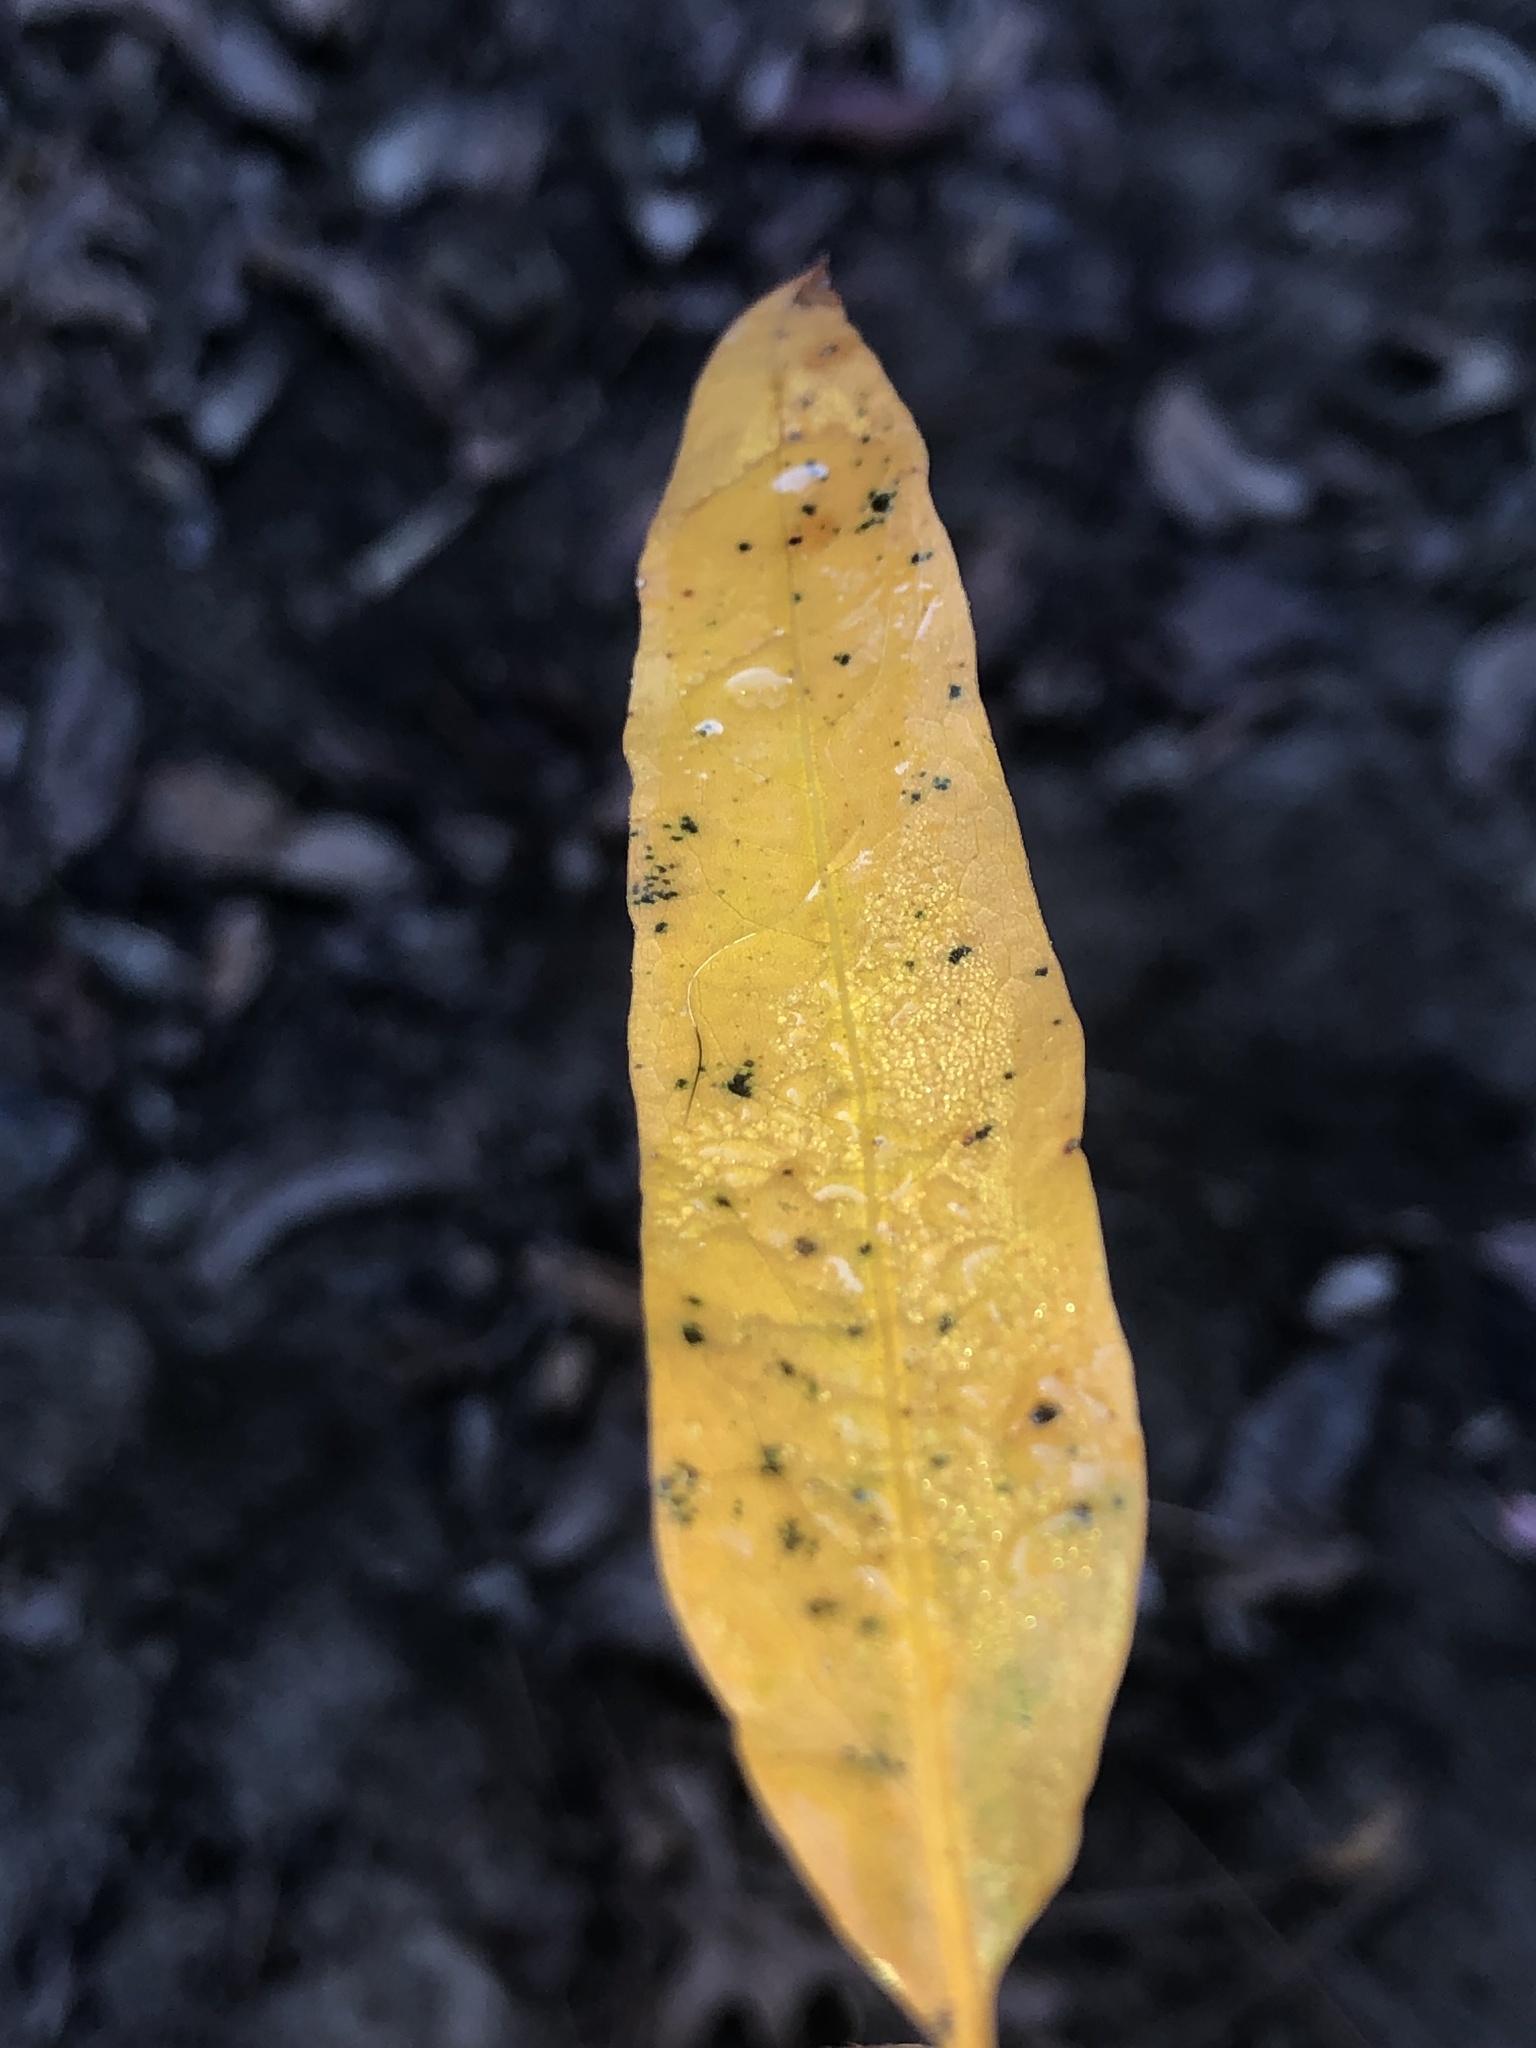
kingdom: Plantae
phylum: Tracheophyta
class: Magnoliopsida
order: Fagales
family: Fagaceae
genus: Quercus
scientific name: Quercus phellos
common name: Willow oak
